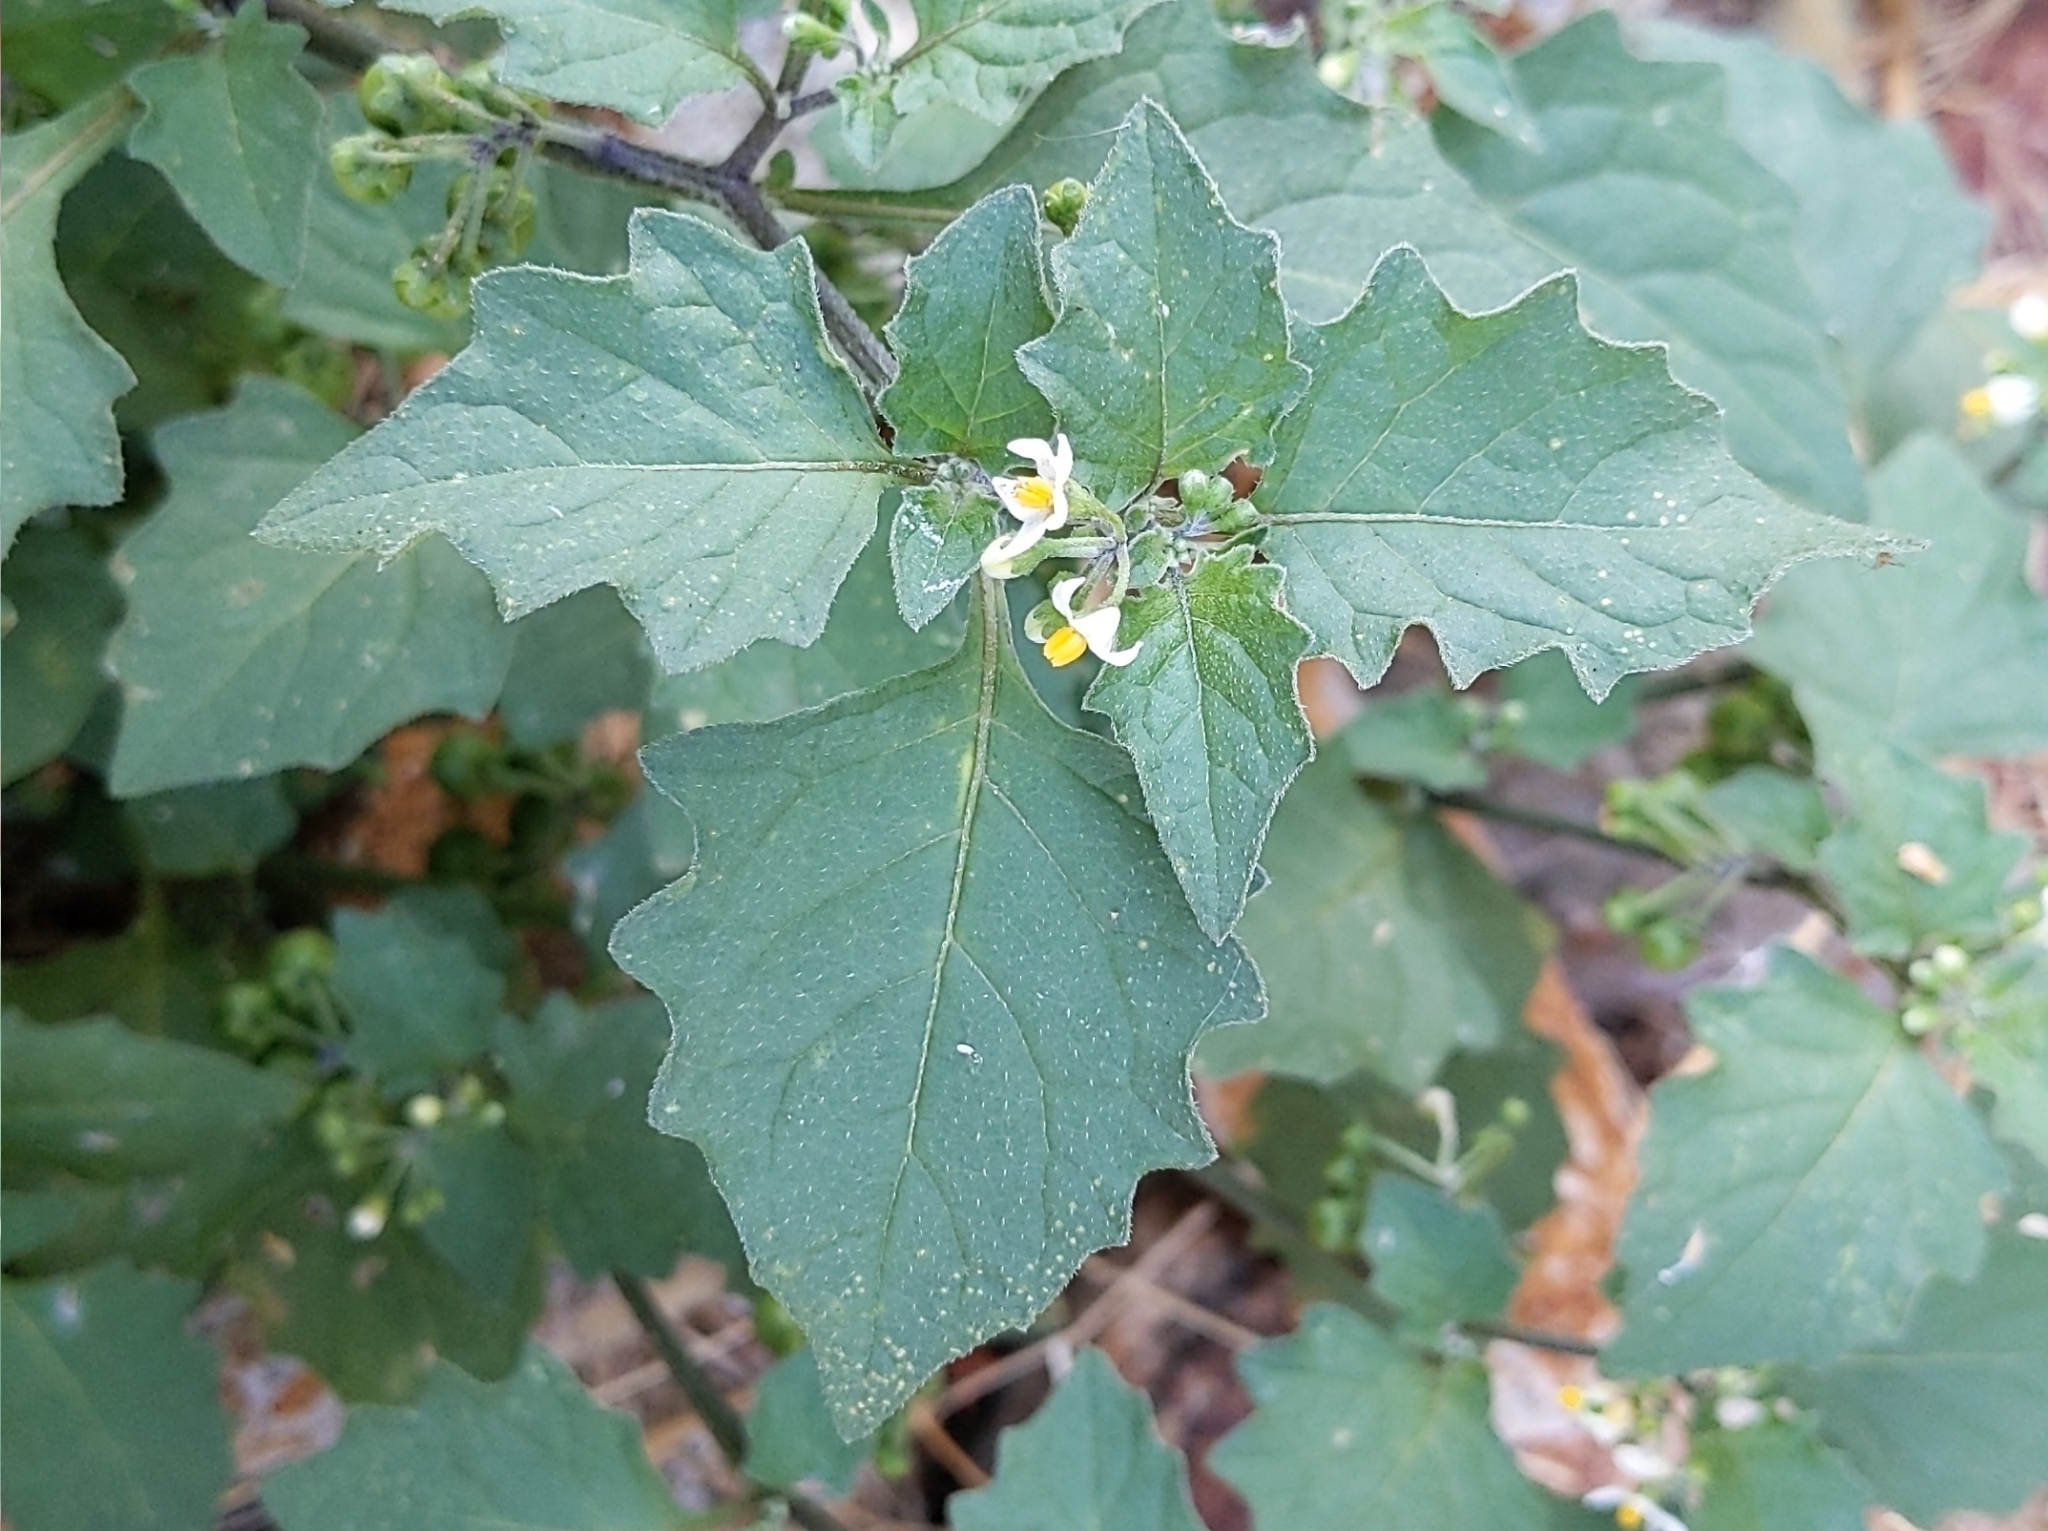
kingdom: Plantae
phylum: Tracheophyta
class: Magnoliopsida
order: Solanales
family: Solanaceae
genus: Solanum
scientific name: Solanum nigrum
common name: Black nightshade
